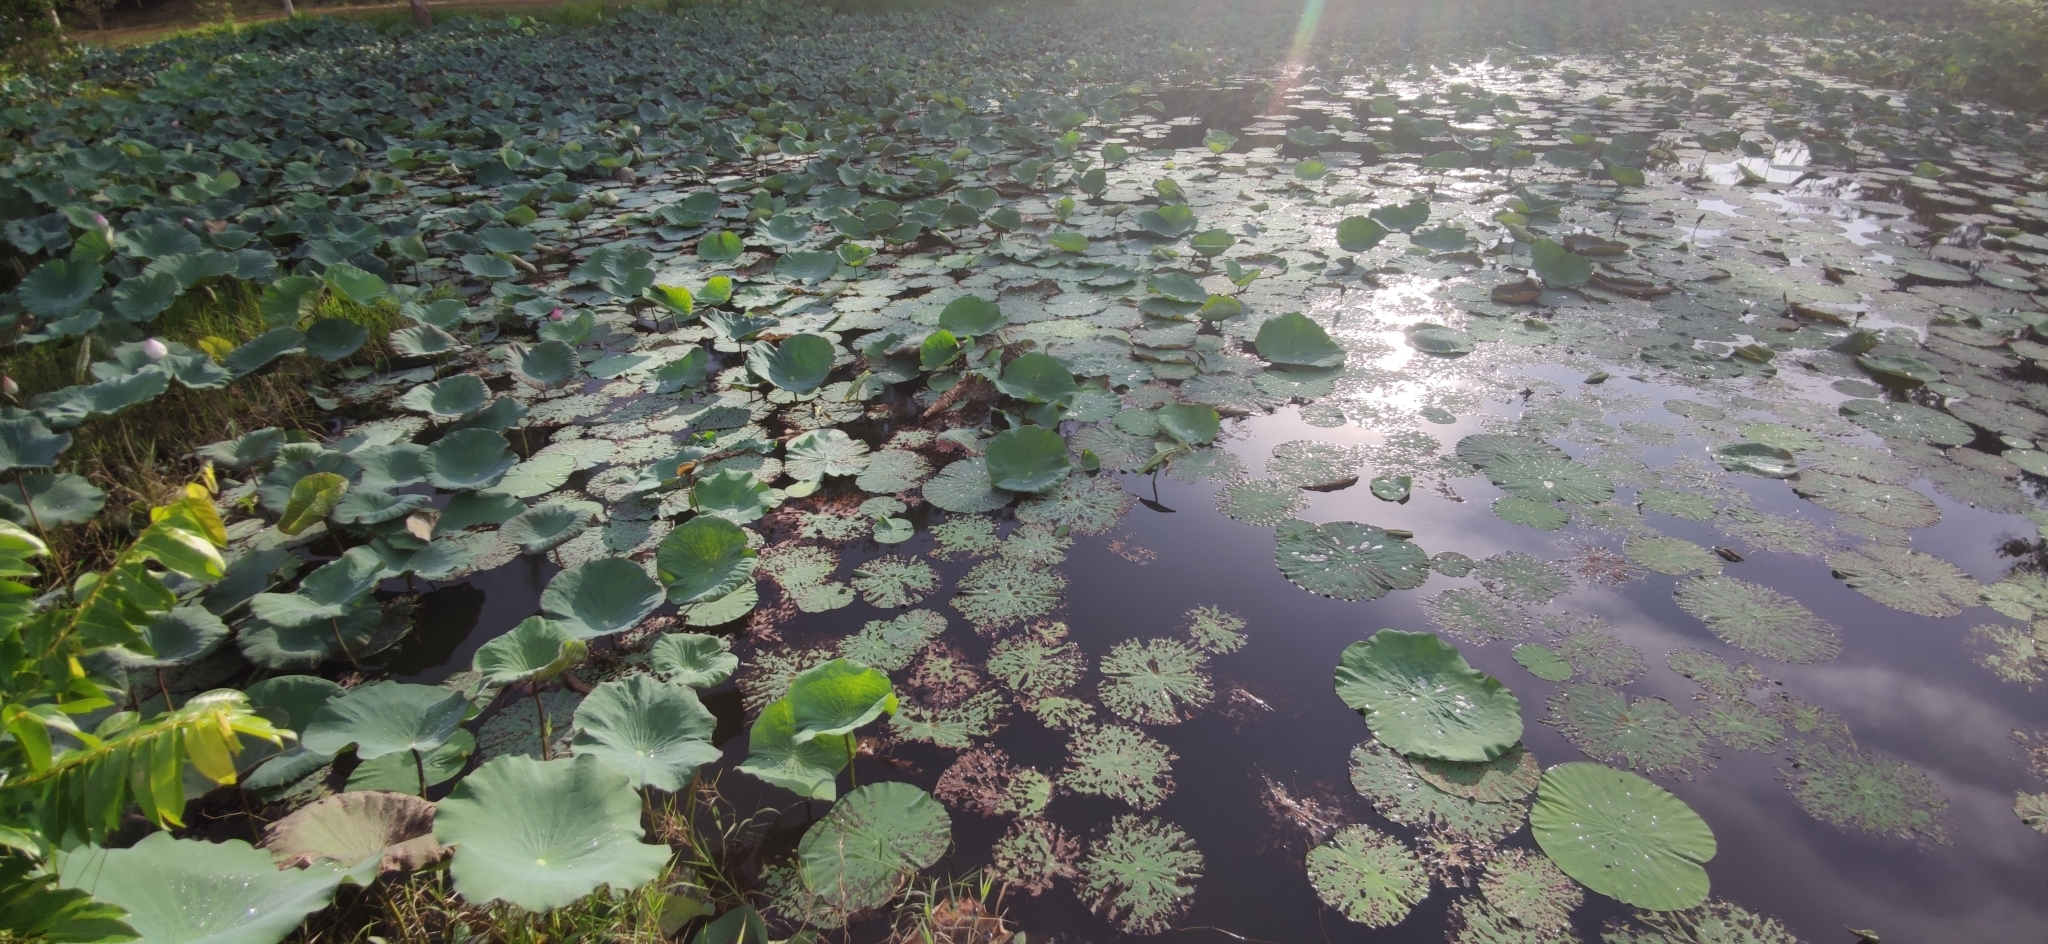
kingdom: Plantae
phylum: Tracheophyta
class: Magnoliopsida
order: Proteales
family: Nelumbonaceae
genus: Nelumbo
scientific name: Nelumbo nucifera
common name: Sacred lotus
